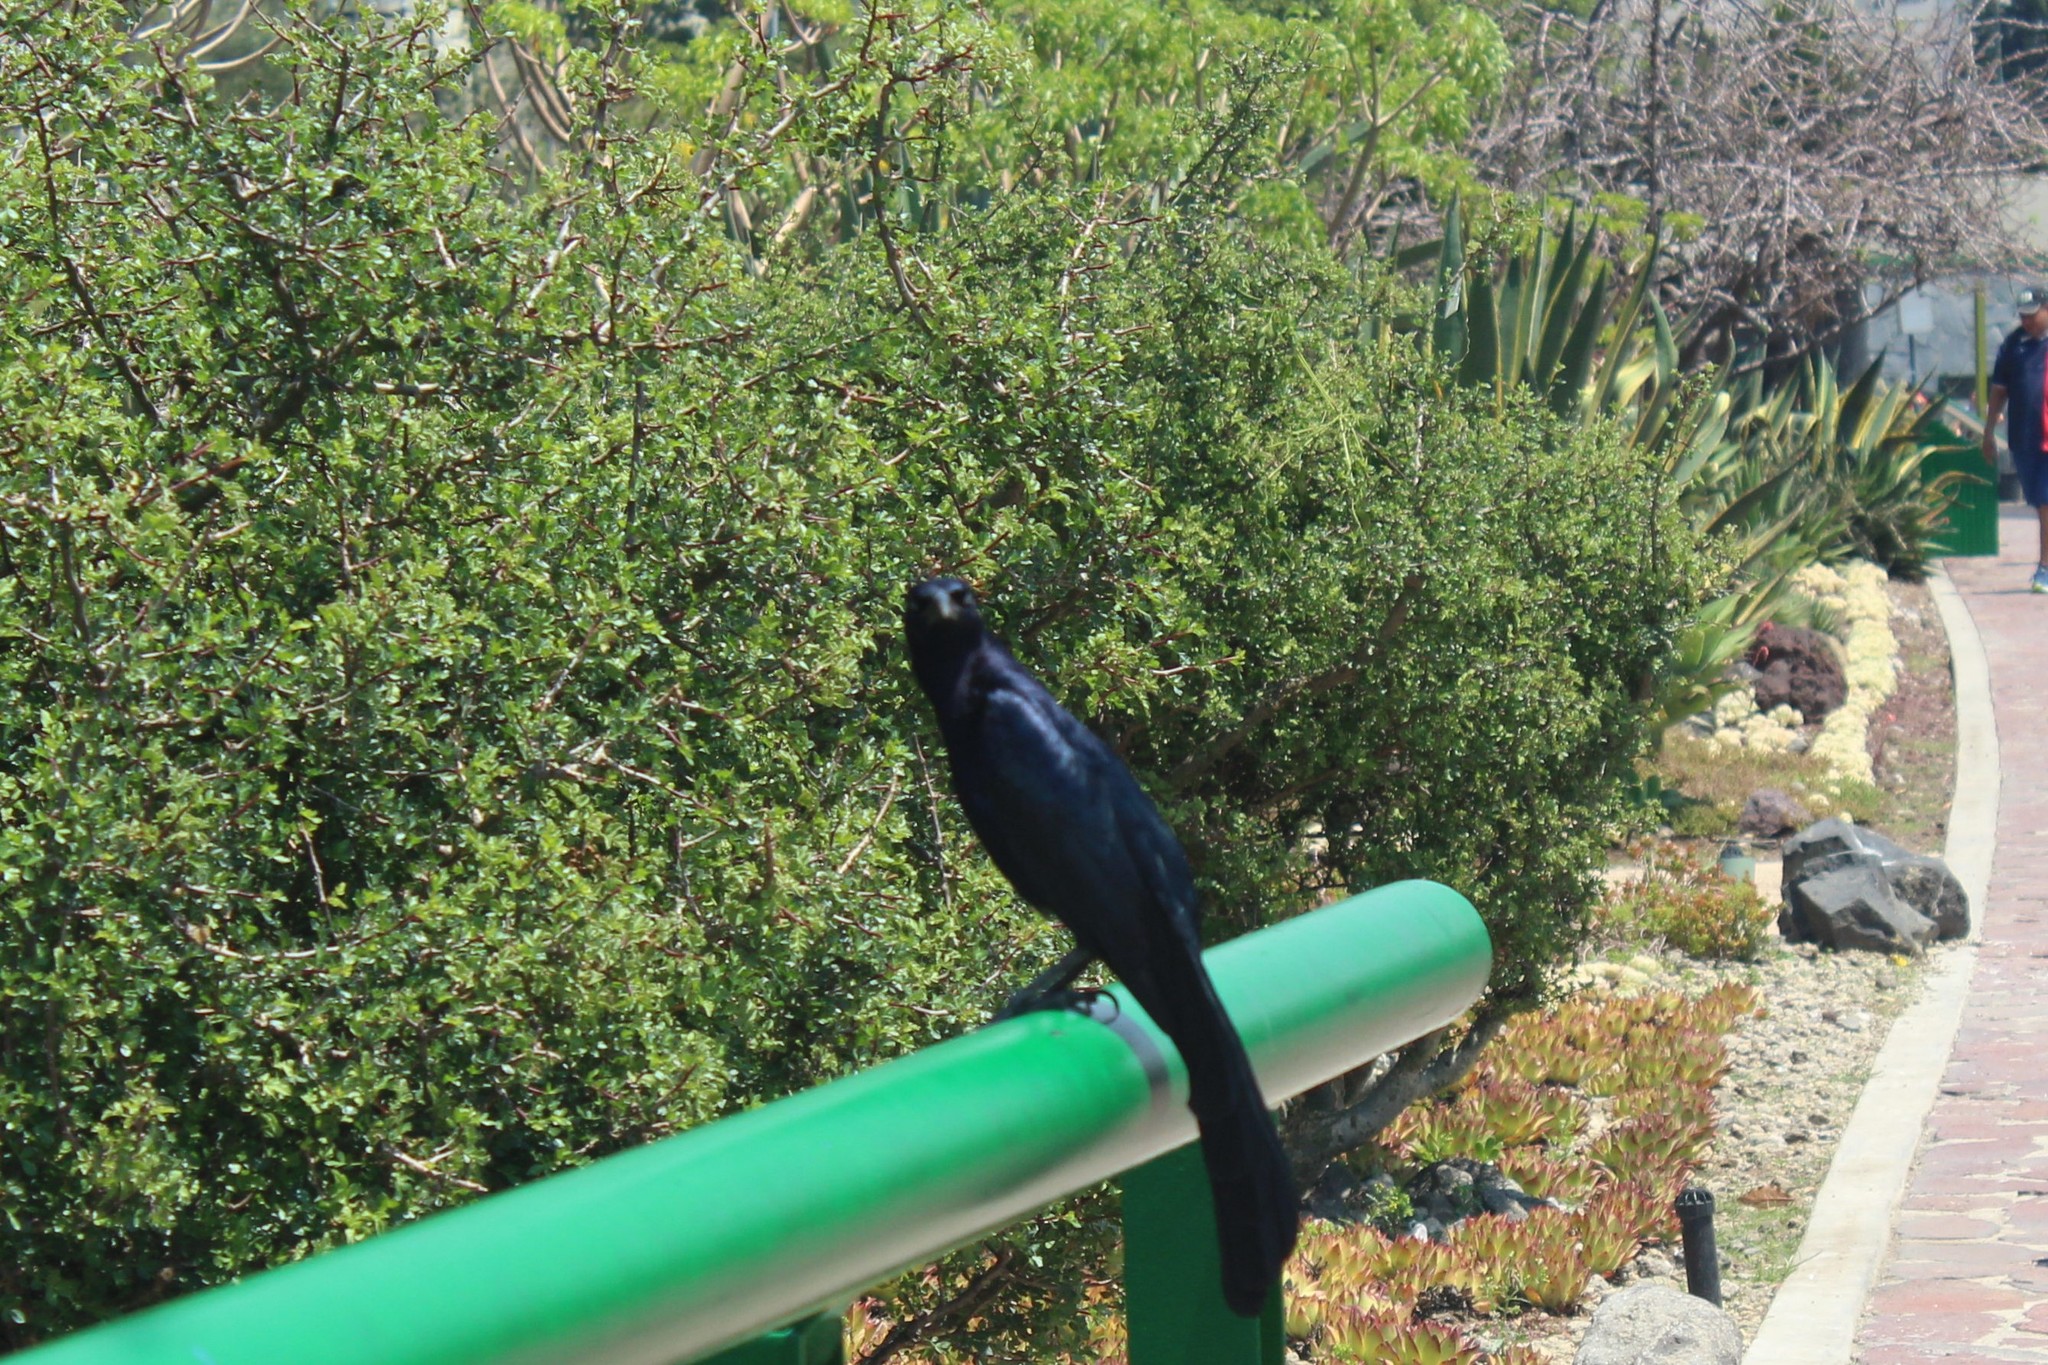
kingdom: Animalia
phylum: Chordata
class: Aves
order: Passeriformes
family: Icteridae
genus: Quiscalus
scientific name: Quiscalus mexicanus
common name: Great-tailed grackle
